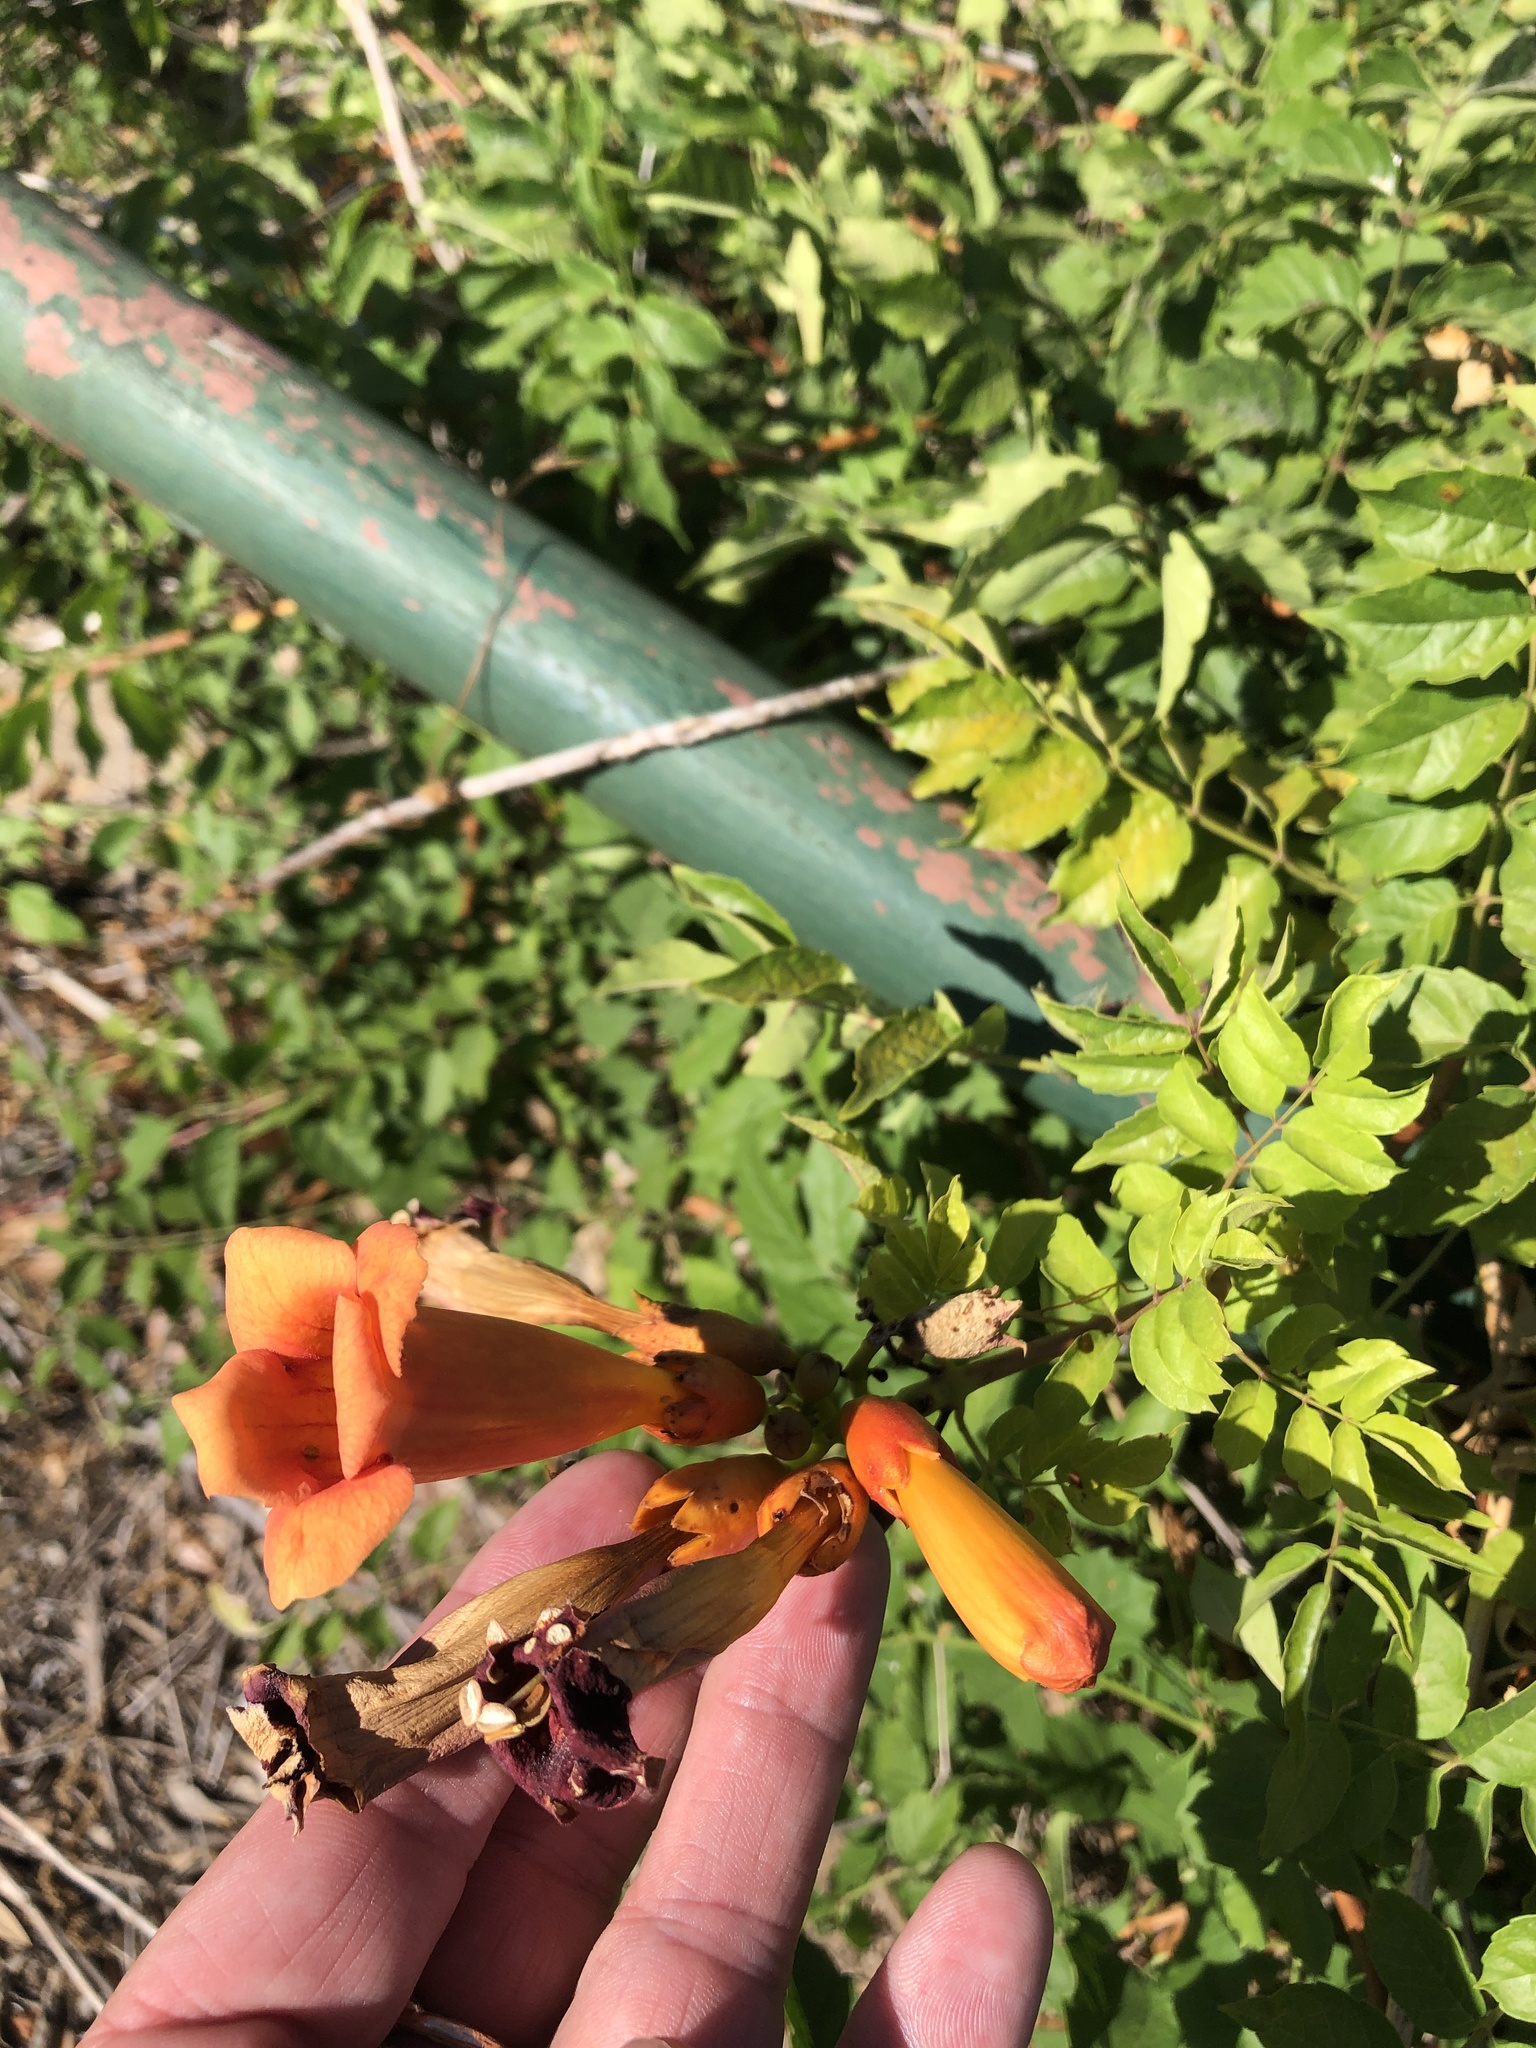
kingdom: Plantae
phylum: Tracheophyta
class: Magnoliopsida
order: Lamiales
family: Bignoniaceae
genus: Campsis
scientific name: Campsis radicans
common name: Trumpet-creeper
